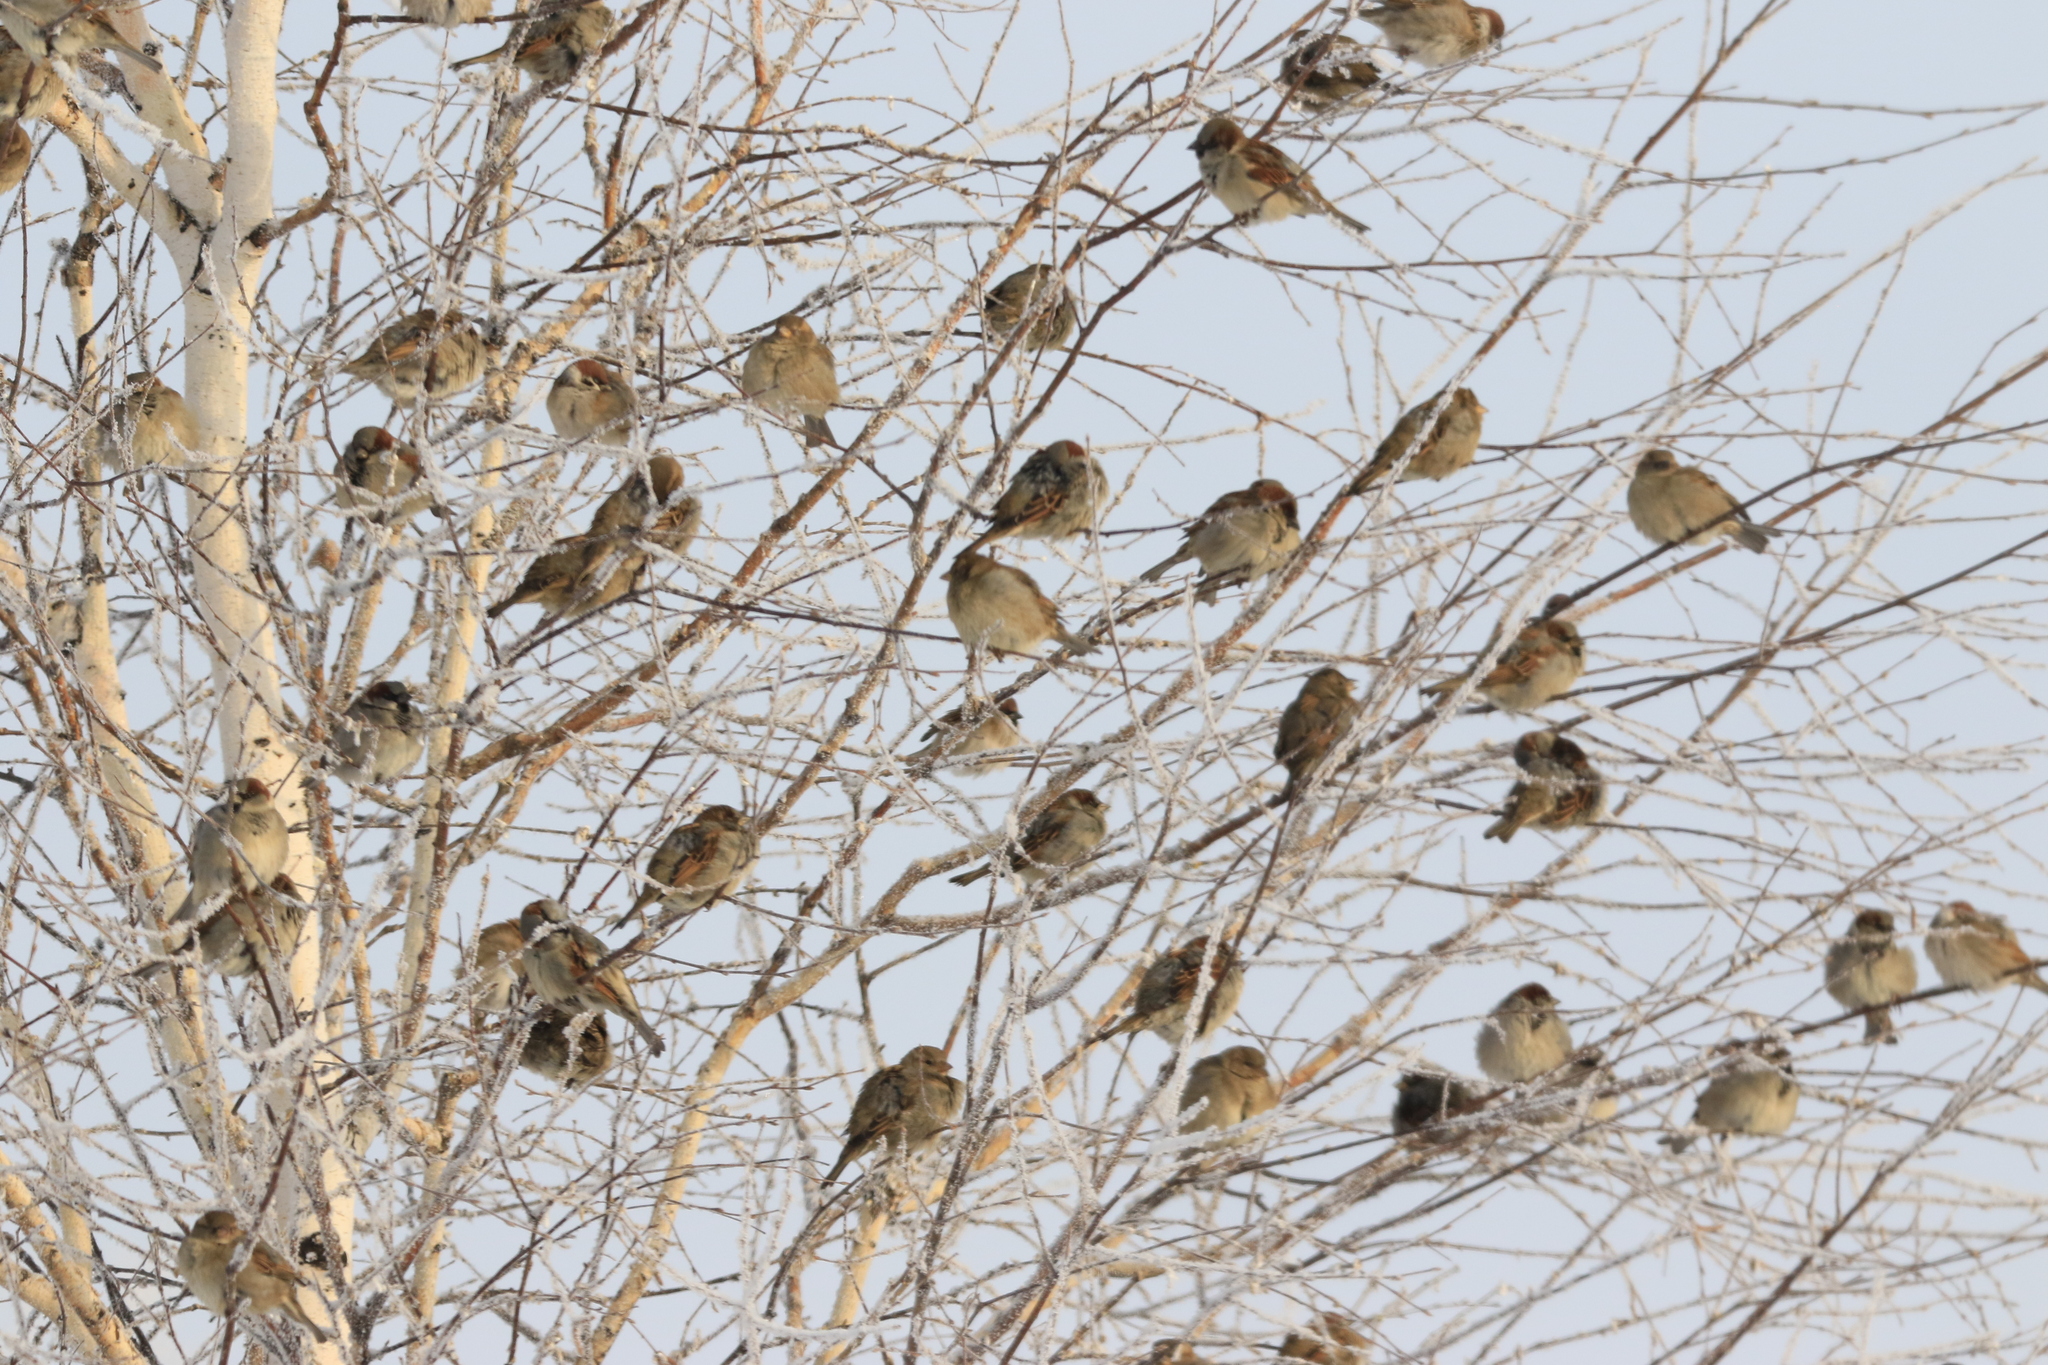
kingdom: Animalia
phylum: Chordata
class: Aves
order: Passeriformes
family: Passeridae
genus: Passer
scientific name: Passer montanus
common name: Eurasian tree sparrow
